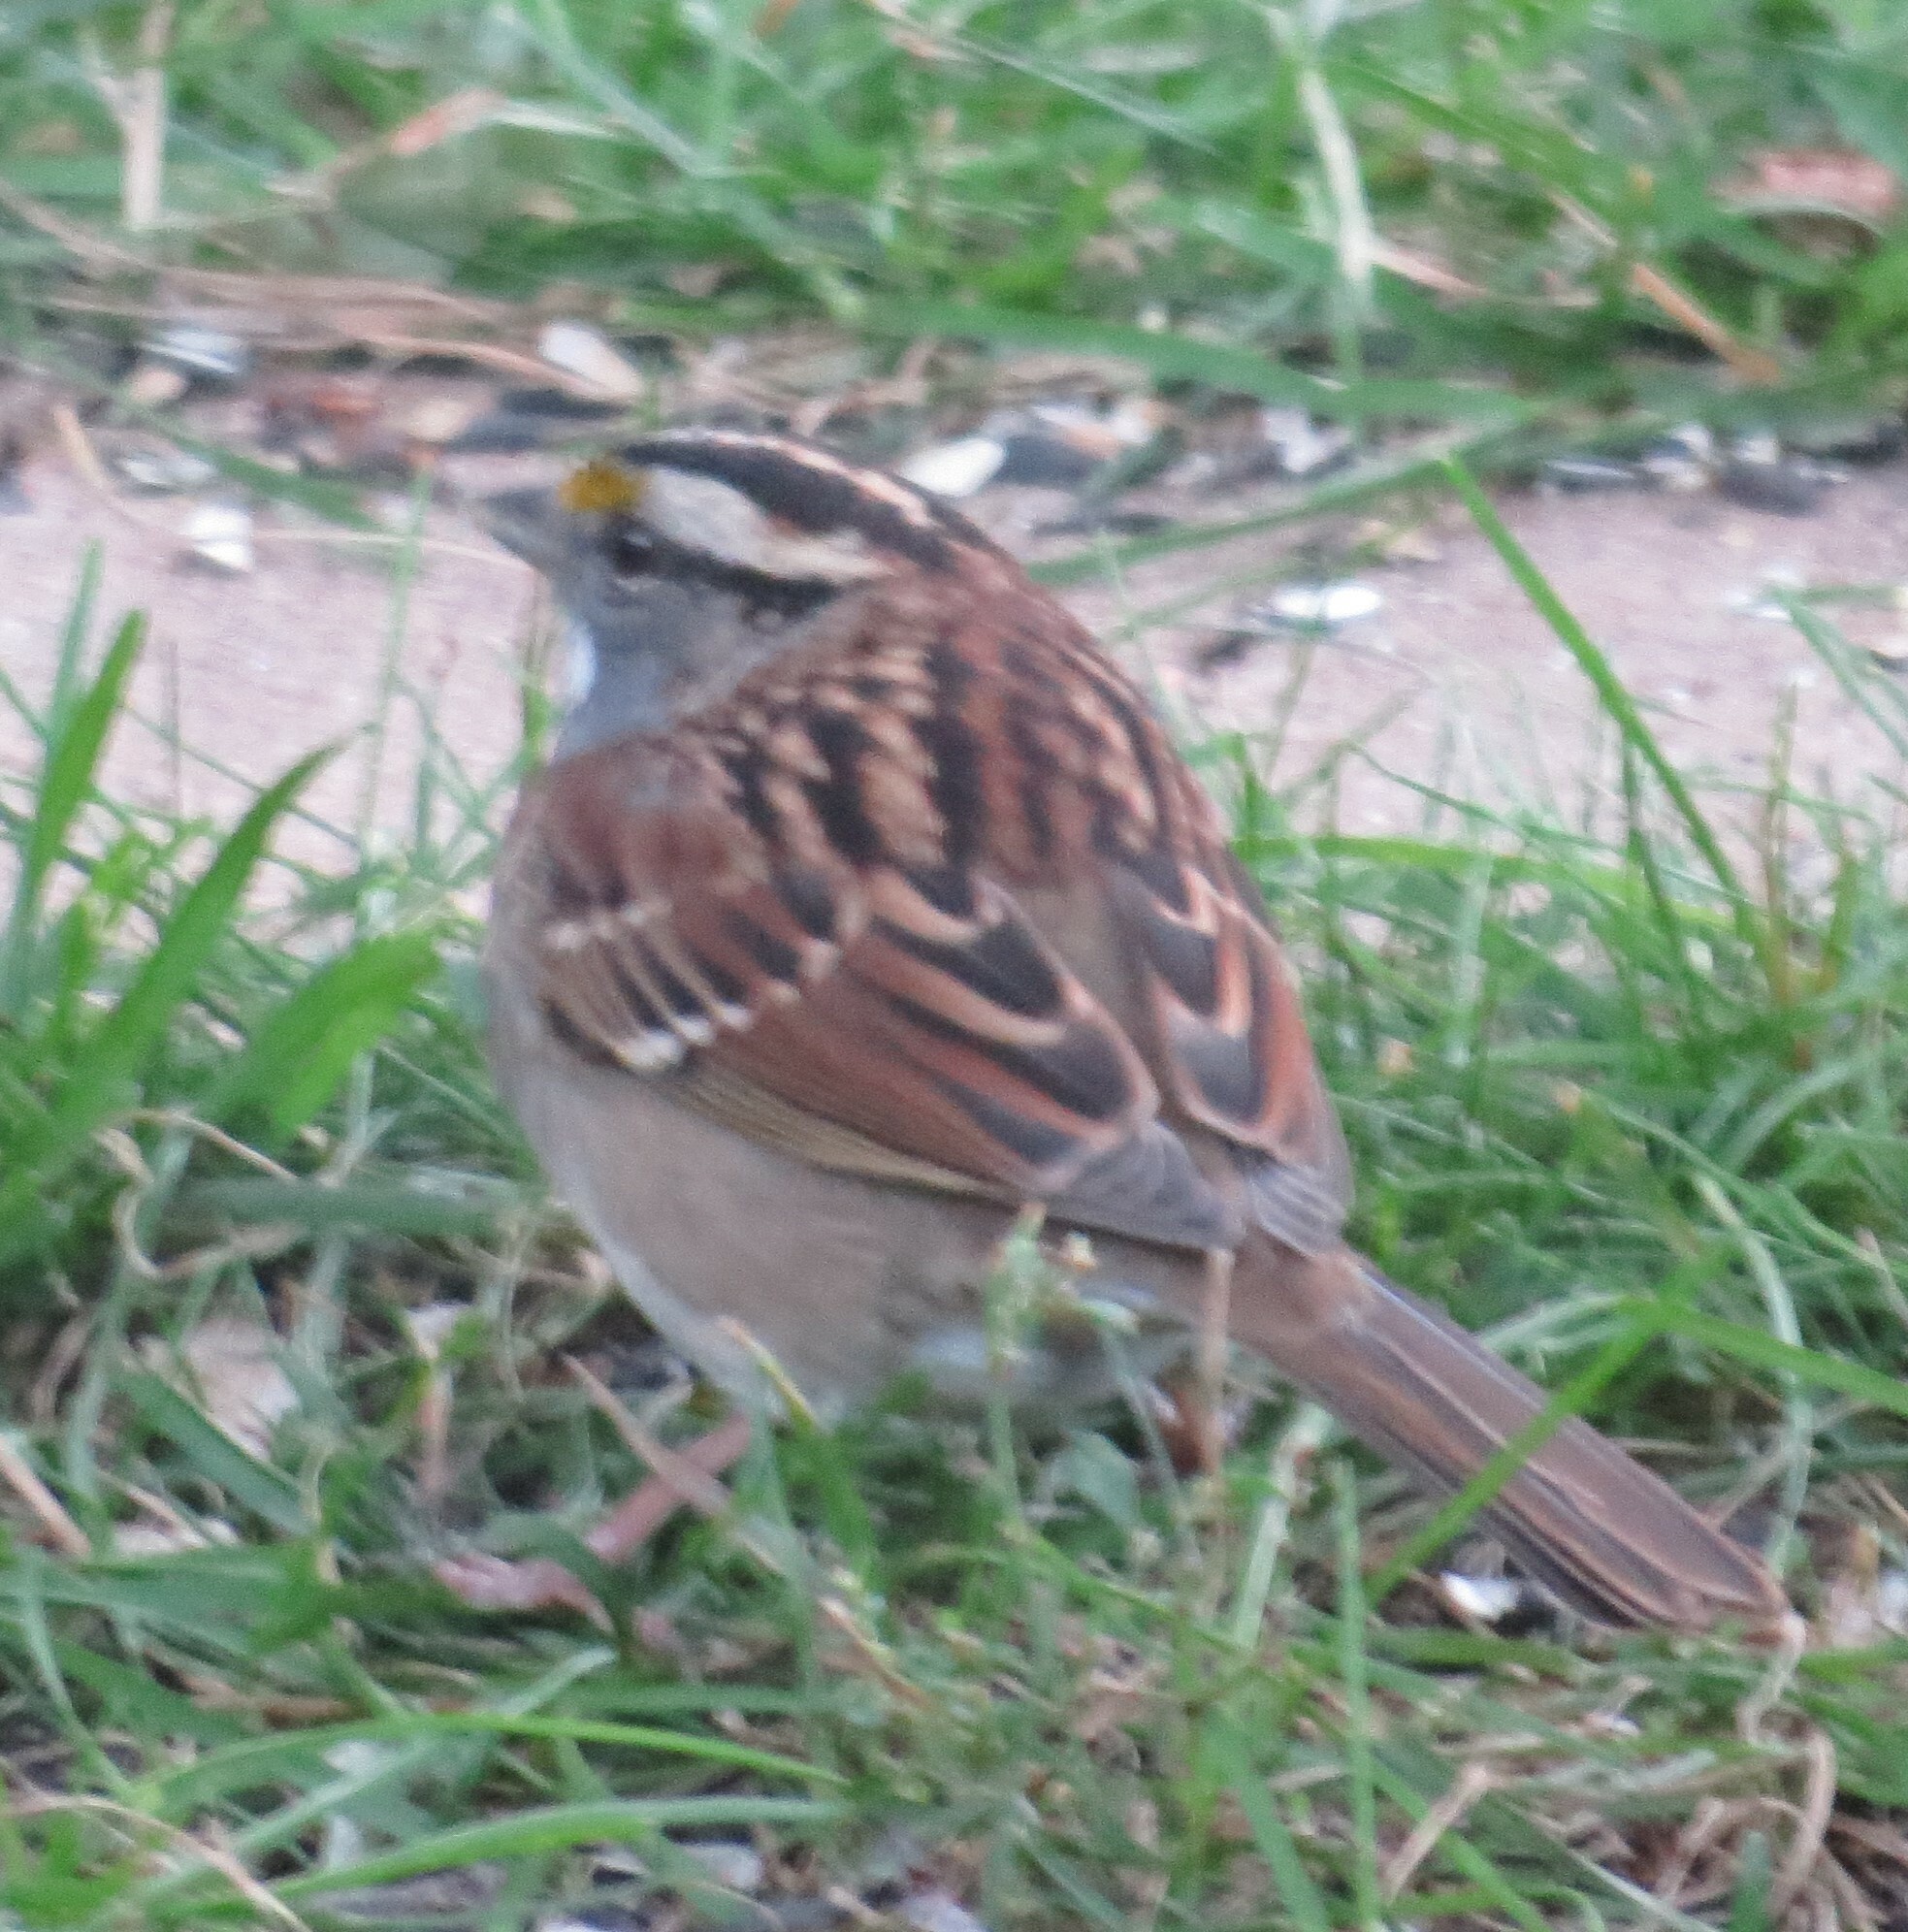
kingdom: Animalia
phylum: Chordata
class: Aves
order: Passeriformes
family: Passerellidae
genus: Zonotrichia
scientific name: Zonotrichia albicollis
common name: White-throated sparrow
